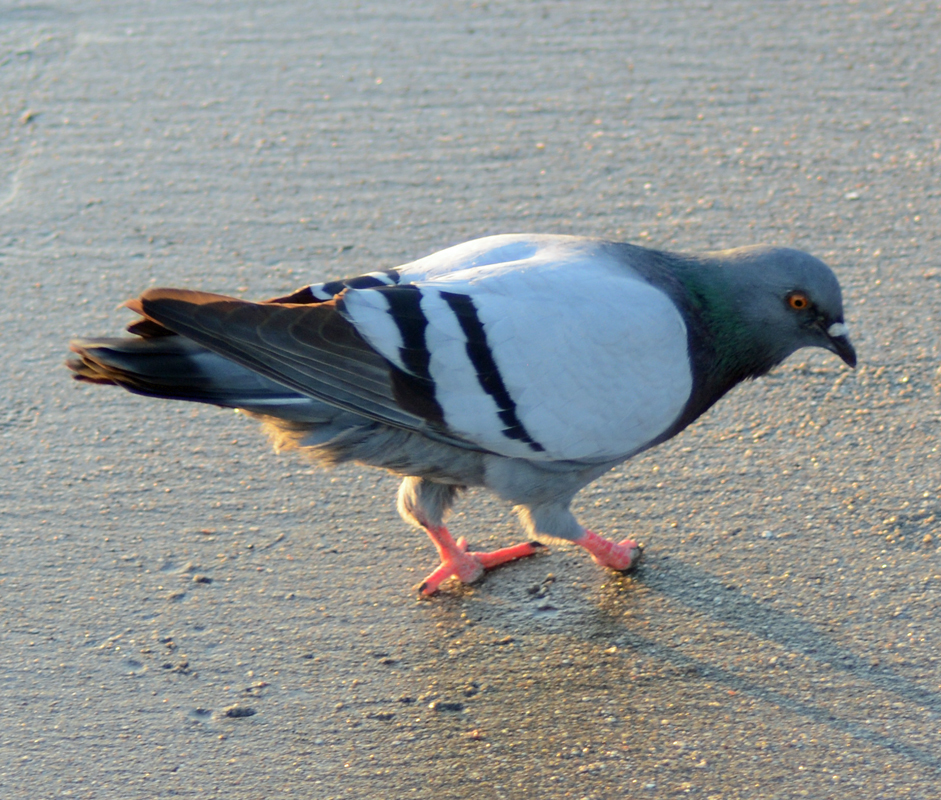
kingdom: Animalia
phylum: Chordata
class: Aves
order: Columbiformes
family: Columbidae
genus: Columba
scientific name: Columba livia
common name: Rock pigeon
